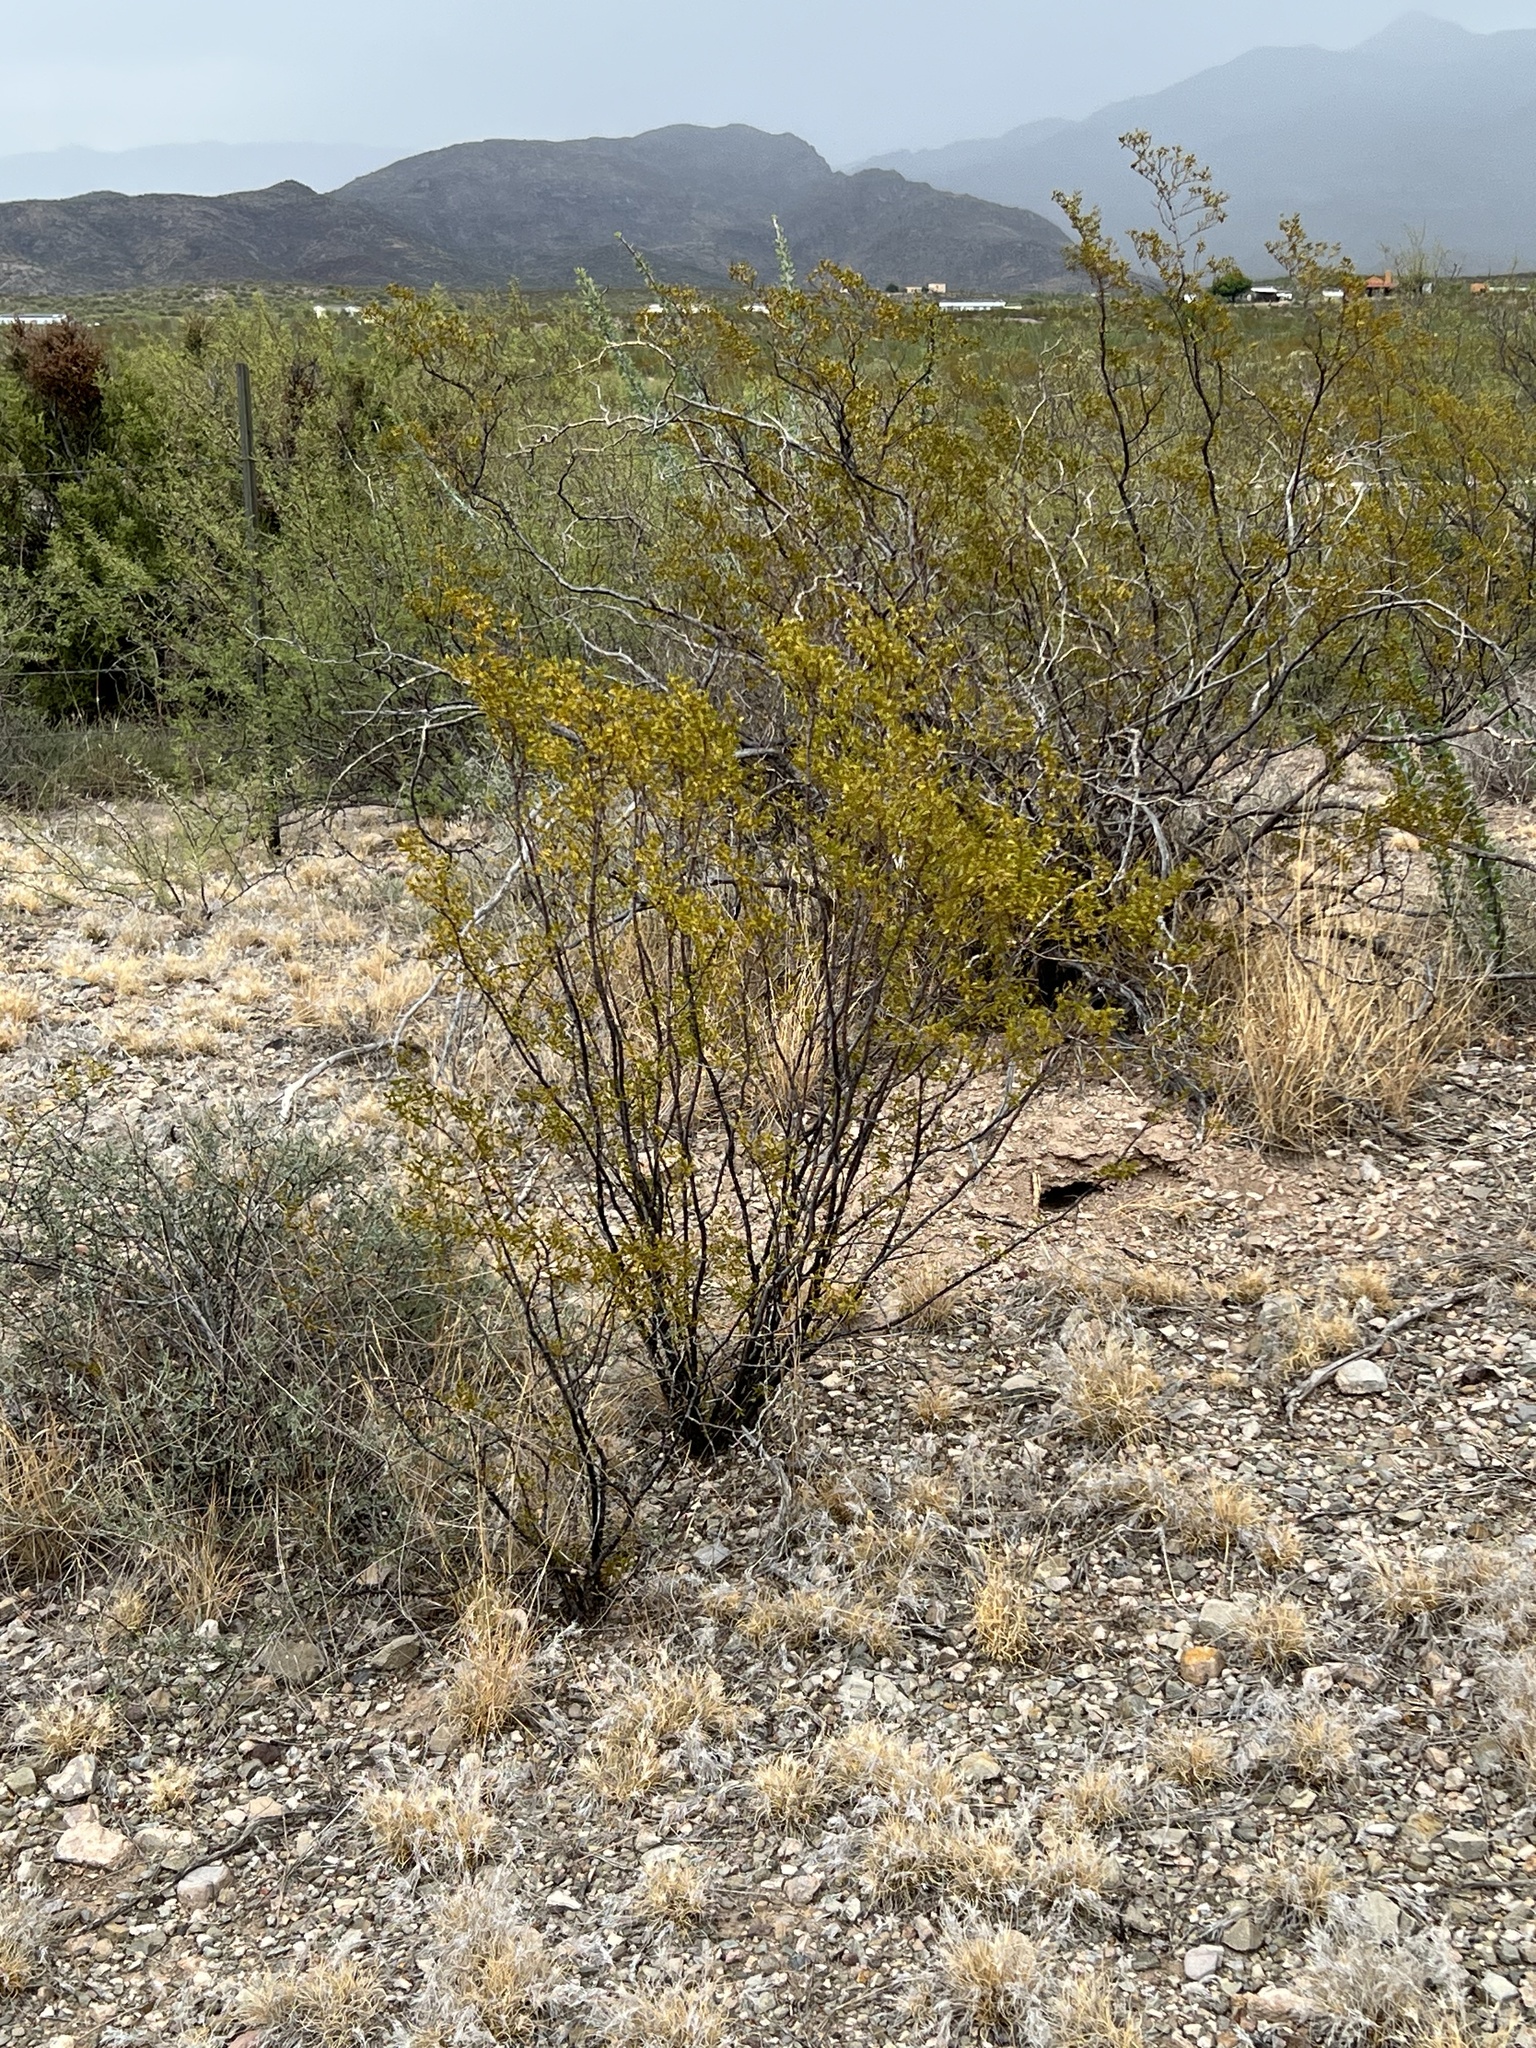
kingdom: Plantae
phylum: Tracheophyta
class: Magnoliopsida
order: Zygophyllales
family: Zygophyllaceae
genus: Larrea
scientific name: Larrea tridentata
